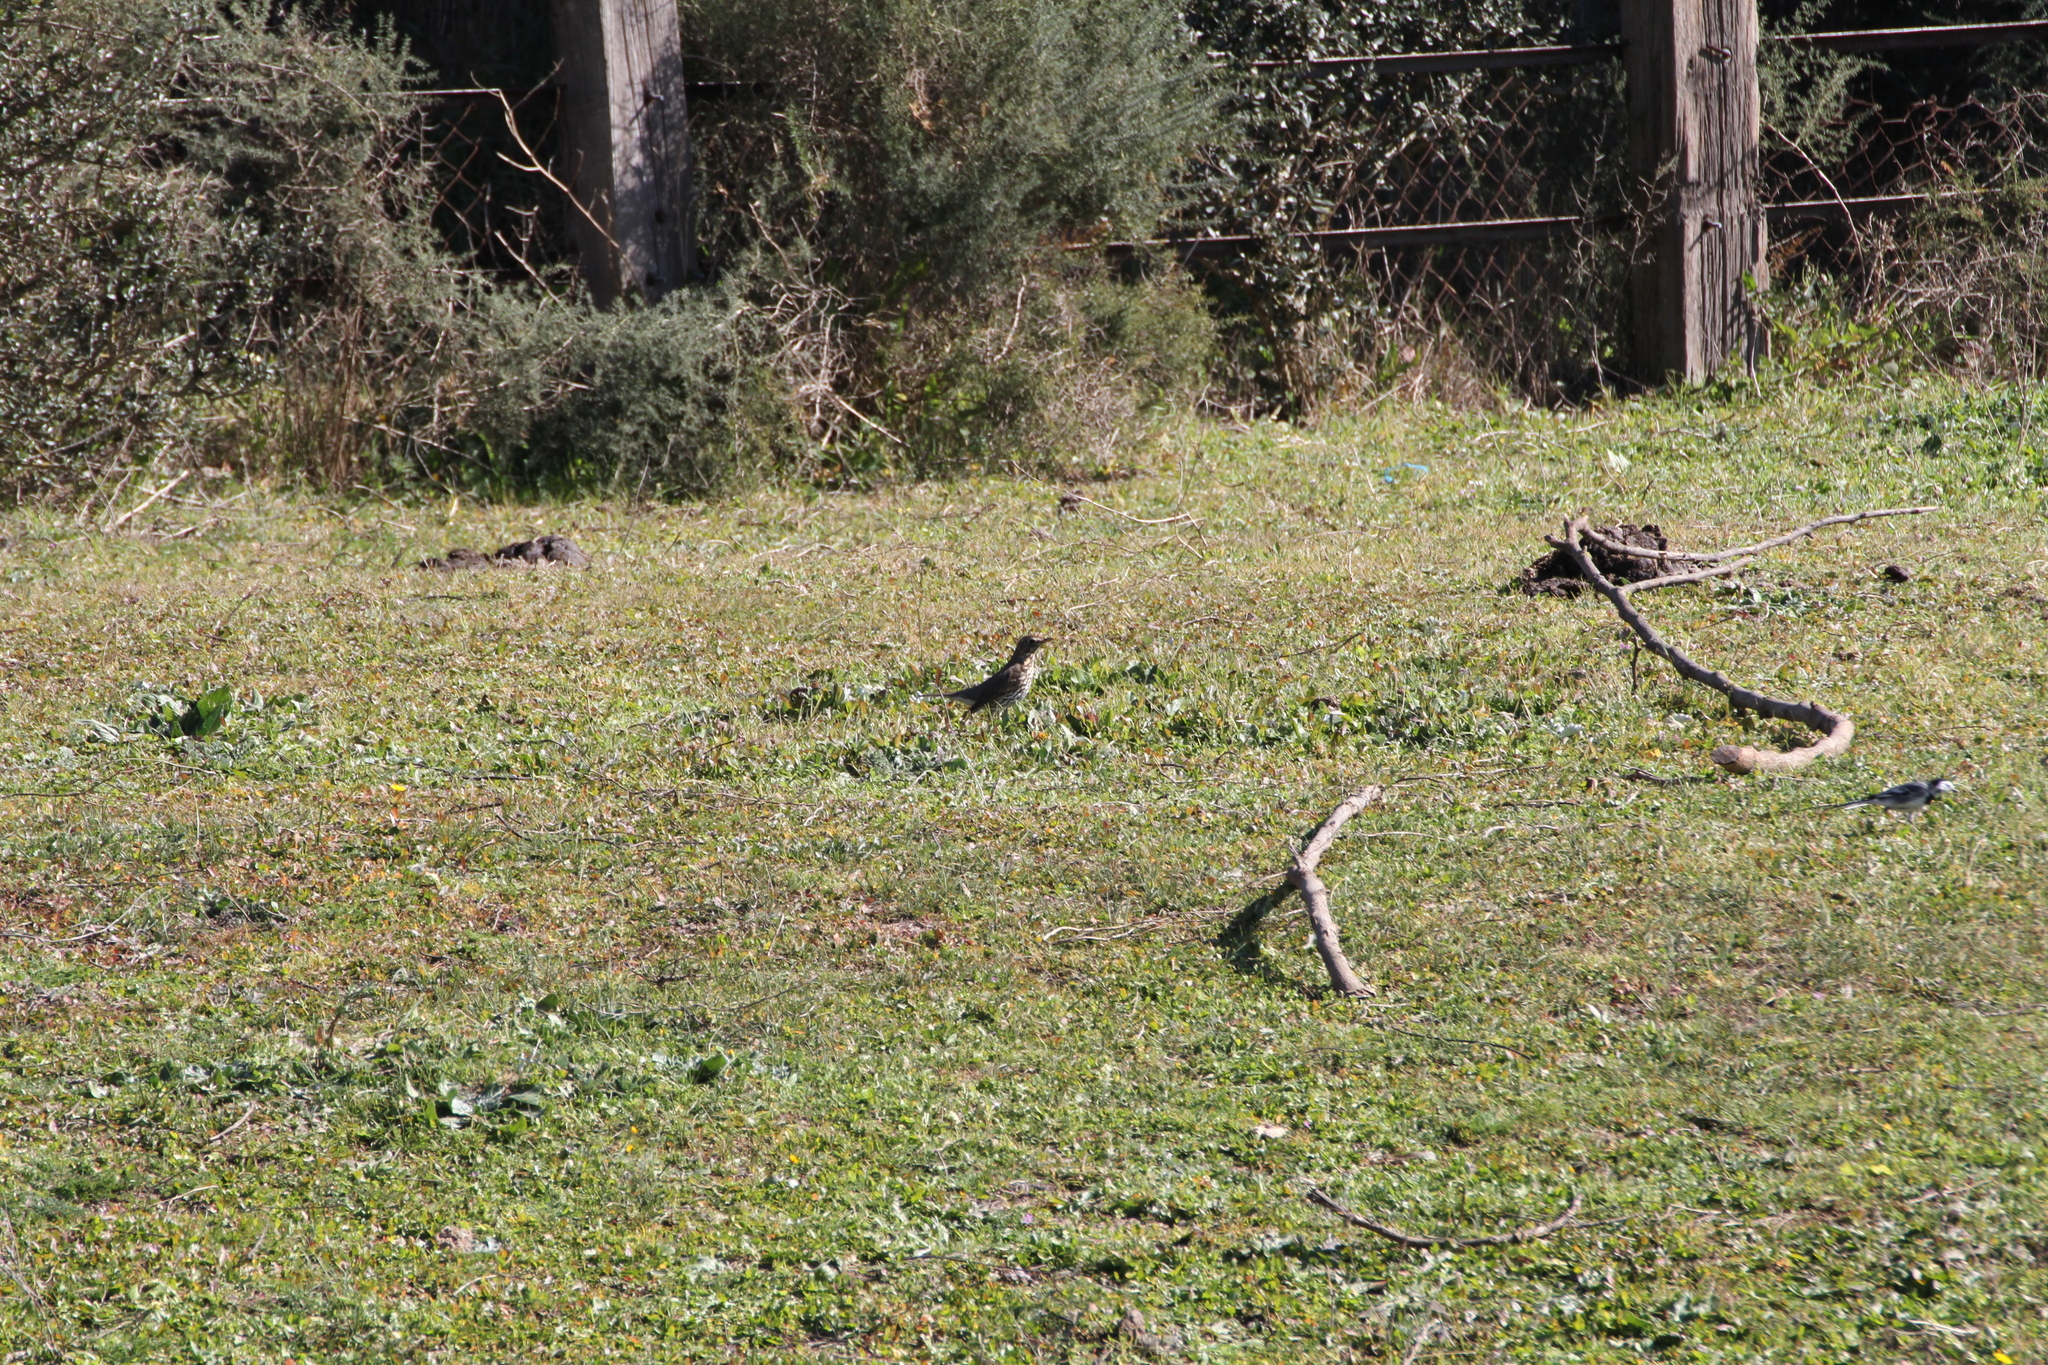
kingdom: Animalia
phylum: Chordata
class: Aves
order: Passeriformes
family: Motacillidae
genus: Anthus
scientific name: Anthus pratensis
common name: Meadow pipit
